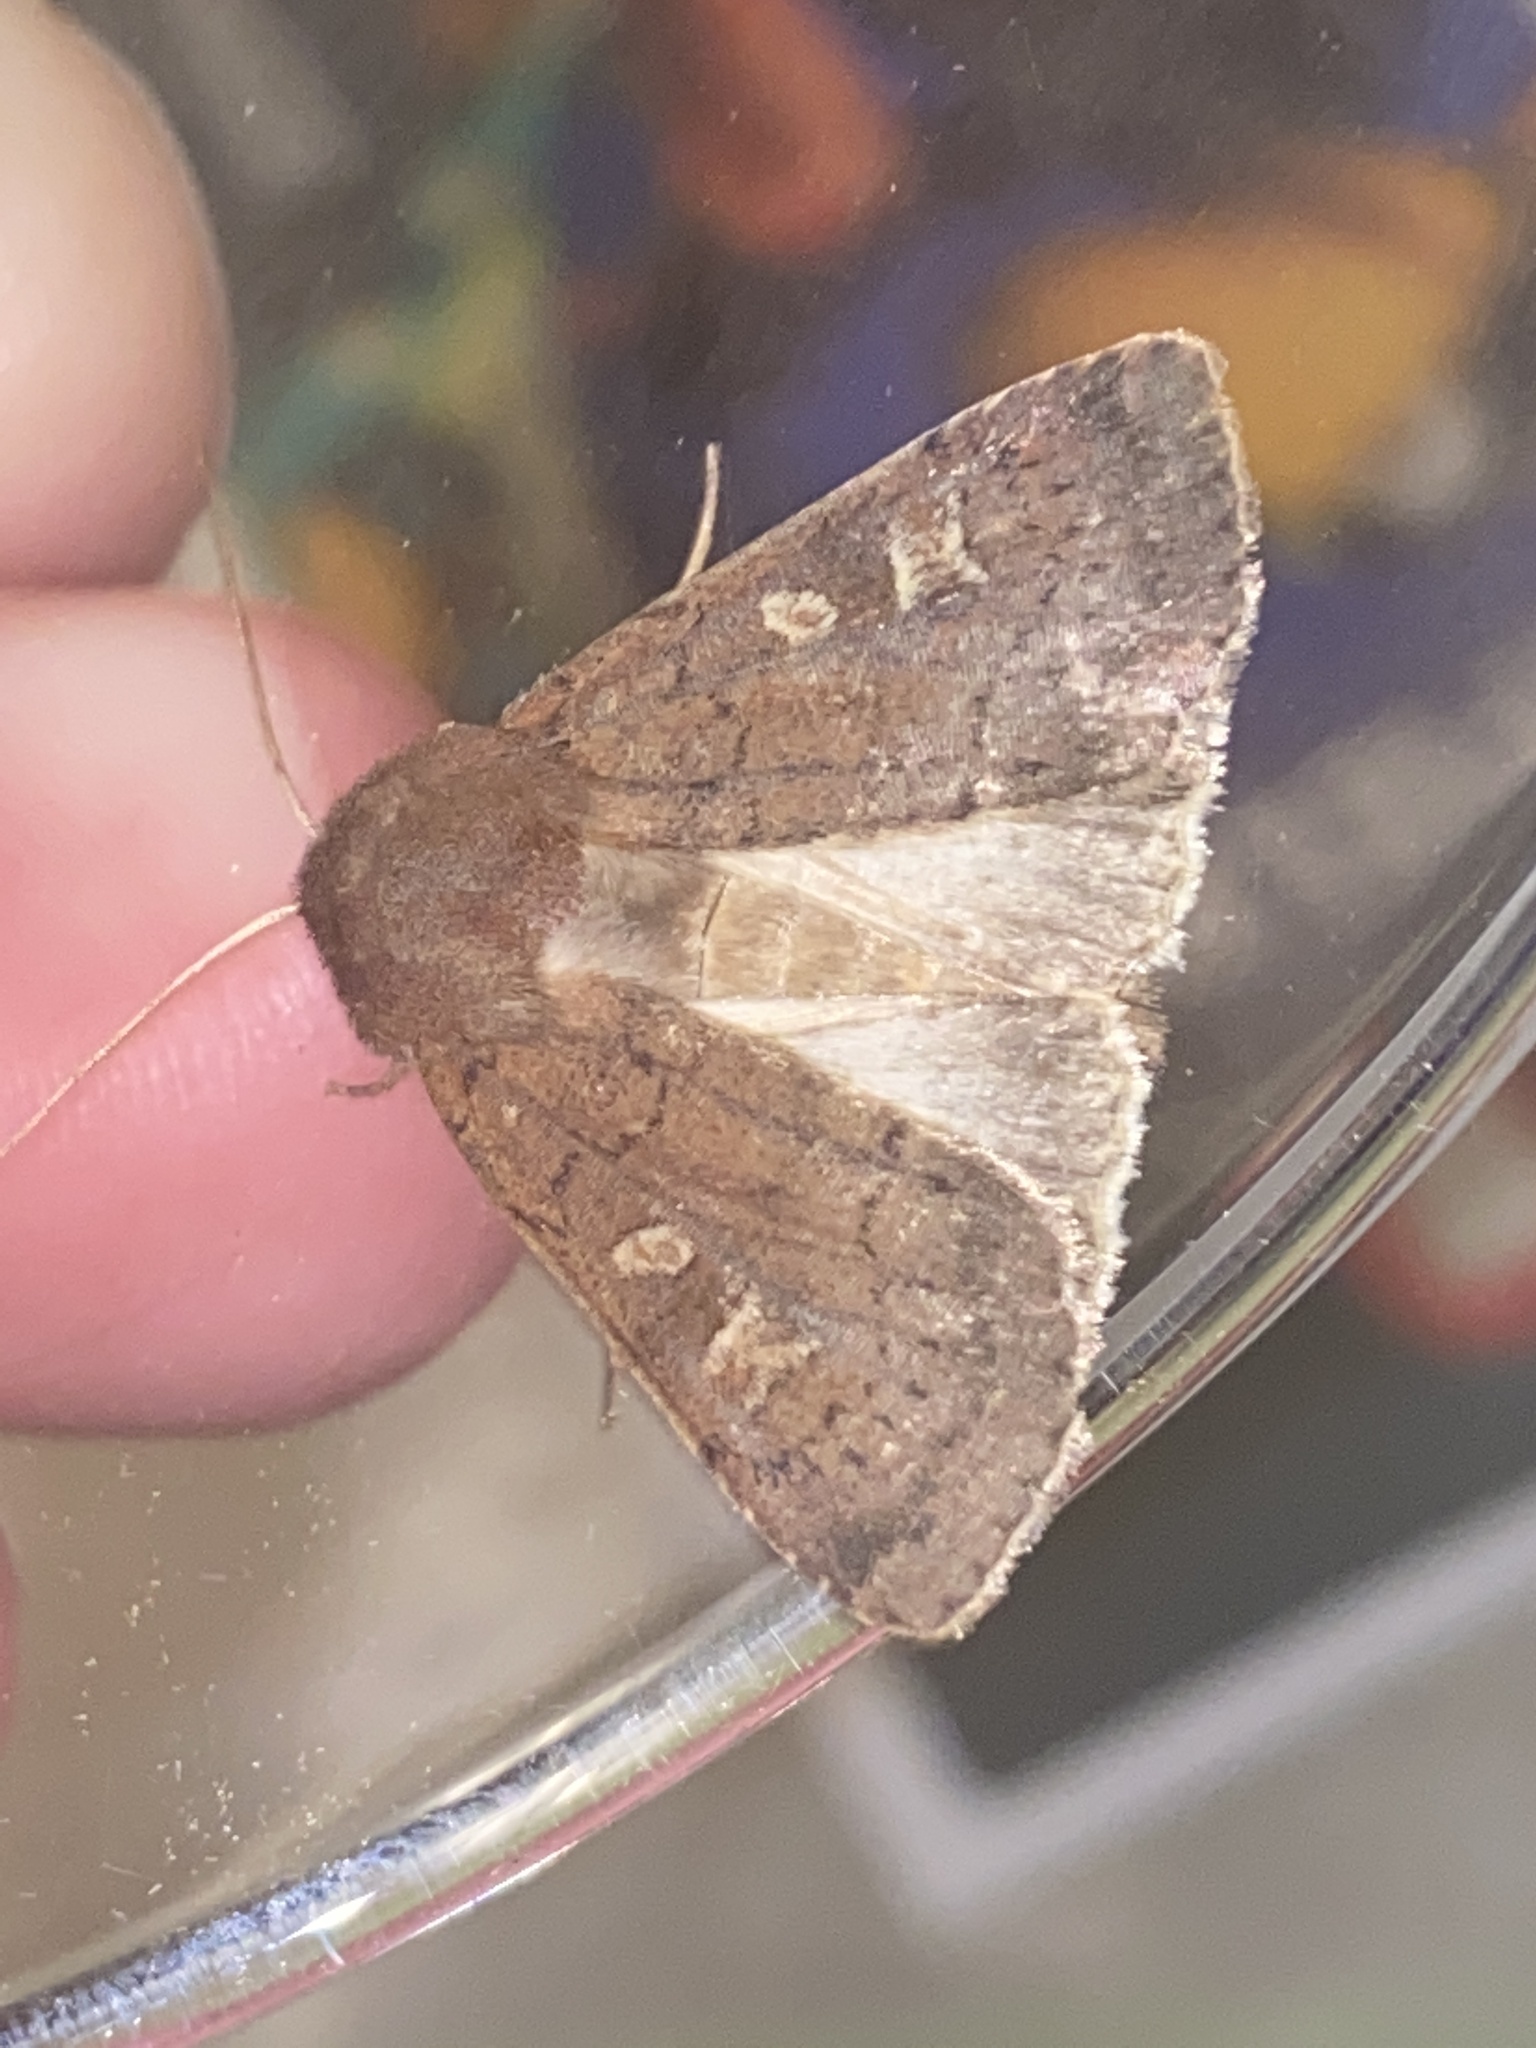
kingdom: Animalia
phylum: Arthropoda
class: Insecta
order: Lepidoptera
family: Noctuidae
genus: Xestia
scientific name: Xestia xanthographa
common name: Square-spot rustic
